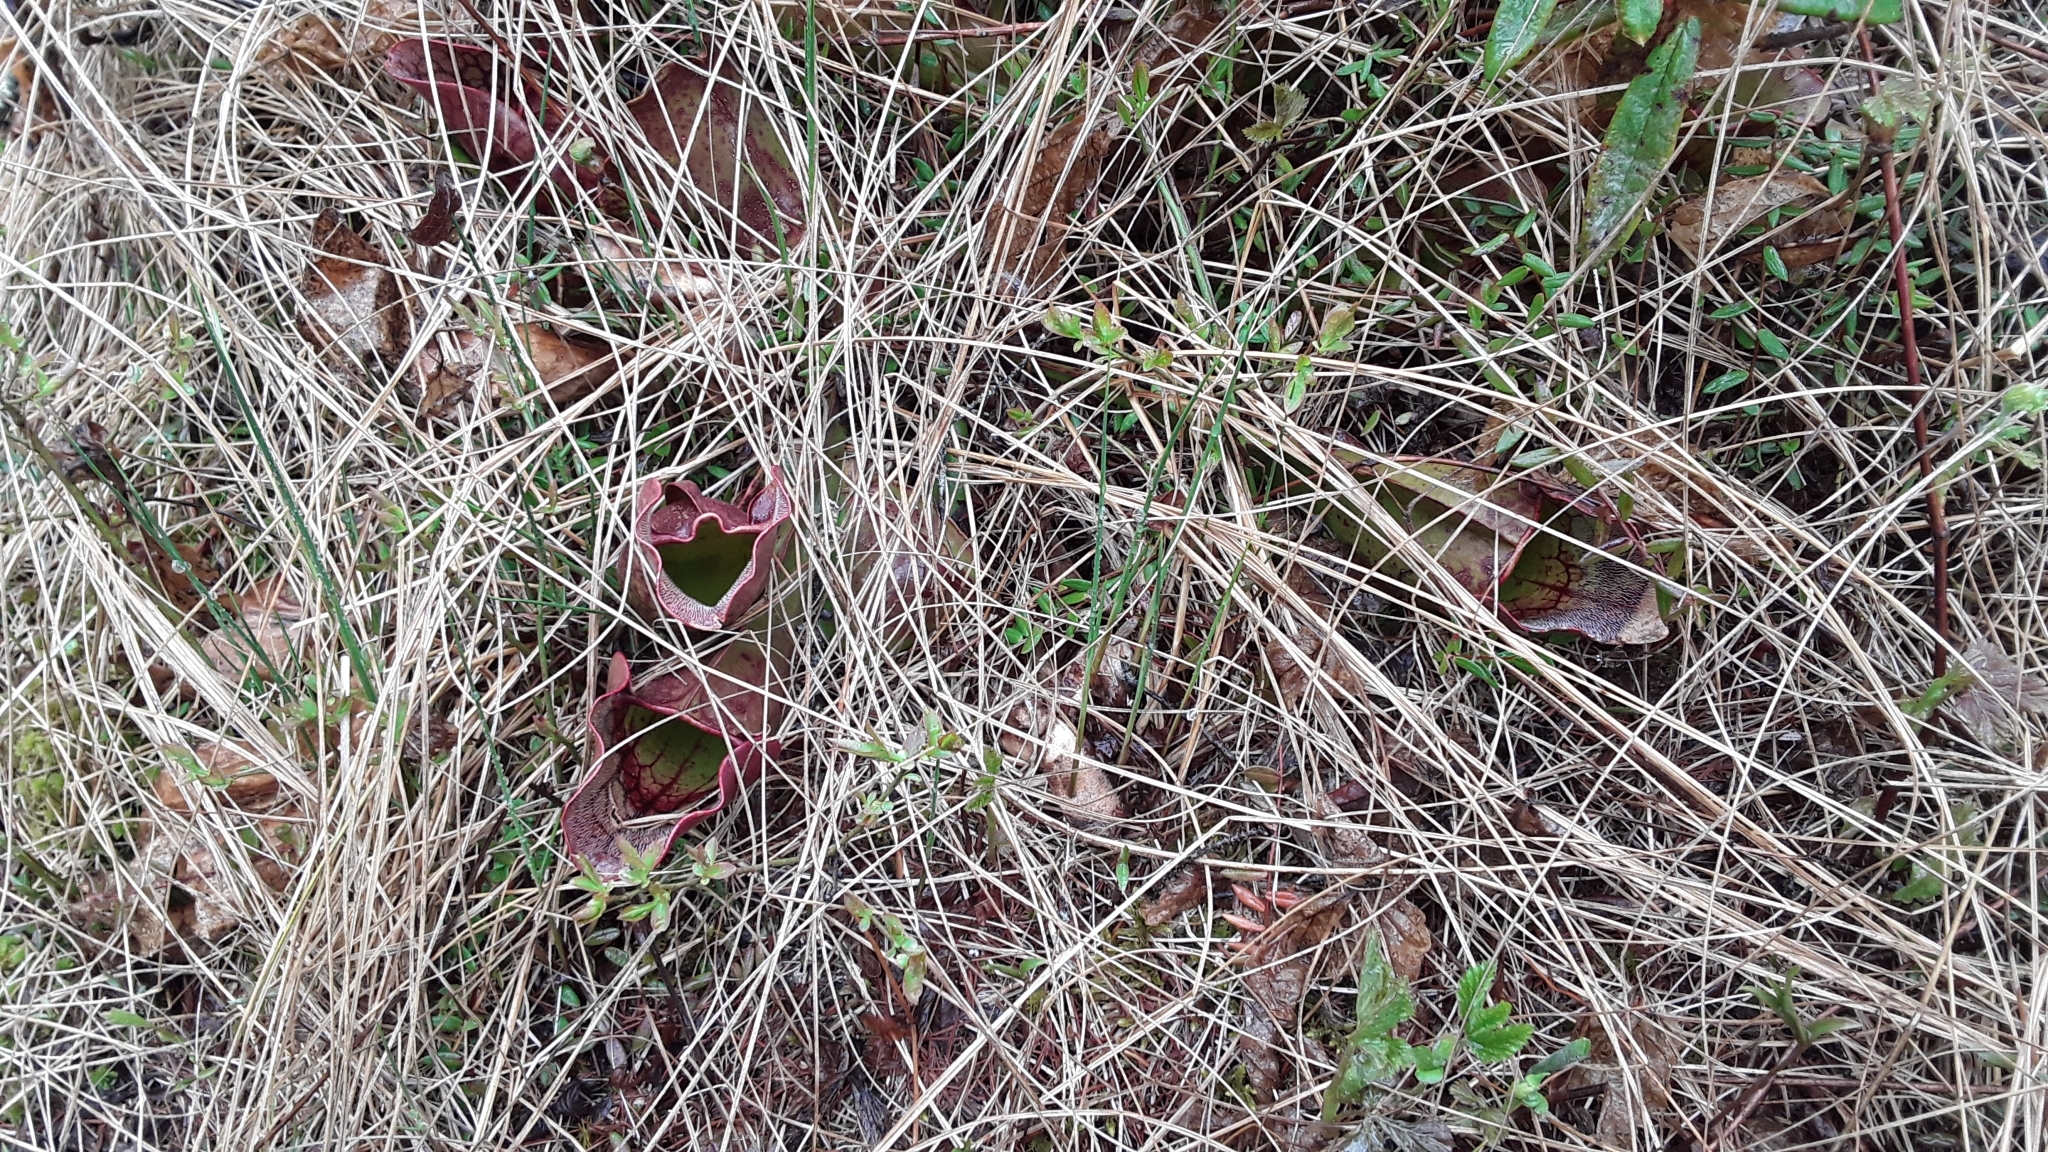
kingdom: Plantae
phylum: Tracheophyta
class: Magnoliopsida
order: Ericales
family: Sarraceniaceae
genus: Sarracenia
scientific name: Sarracenia purpurea
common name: Pitcherplant
